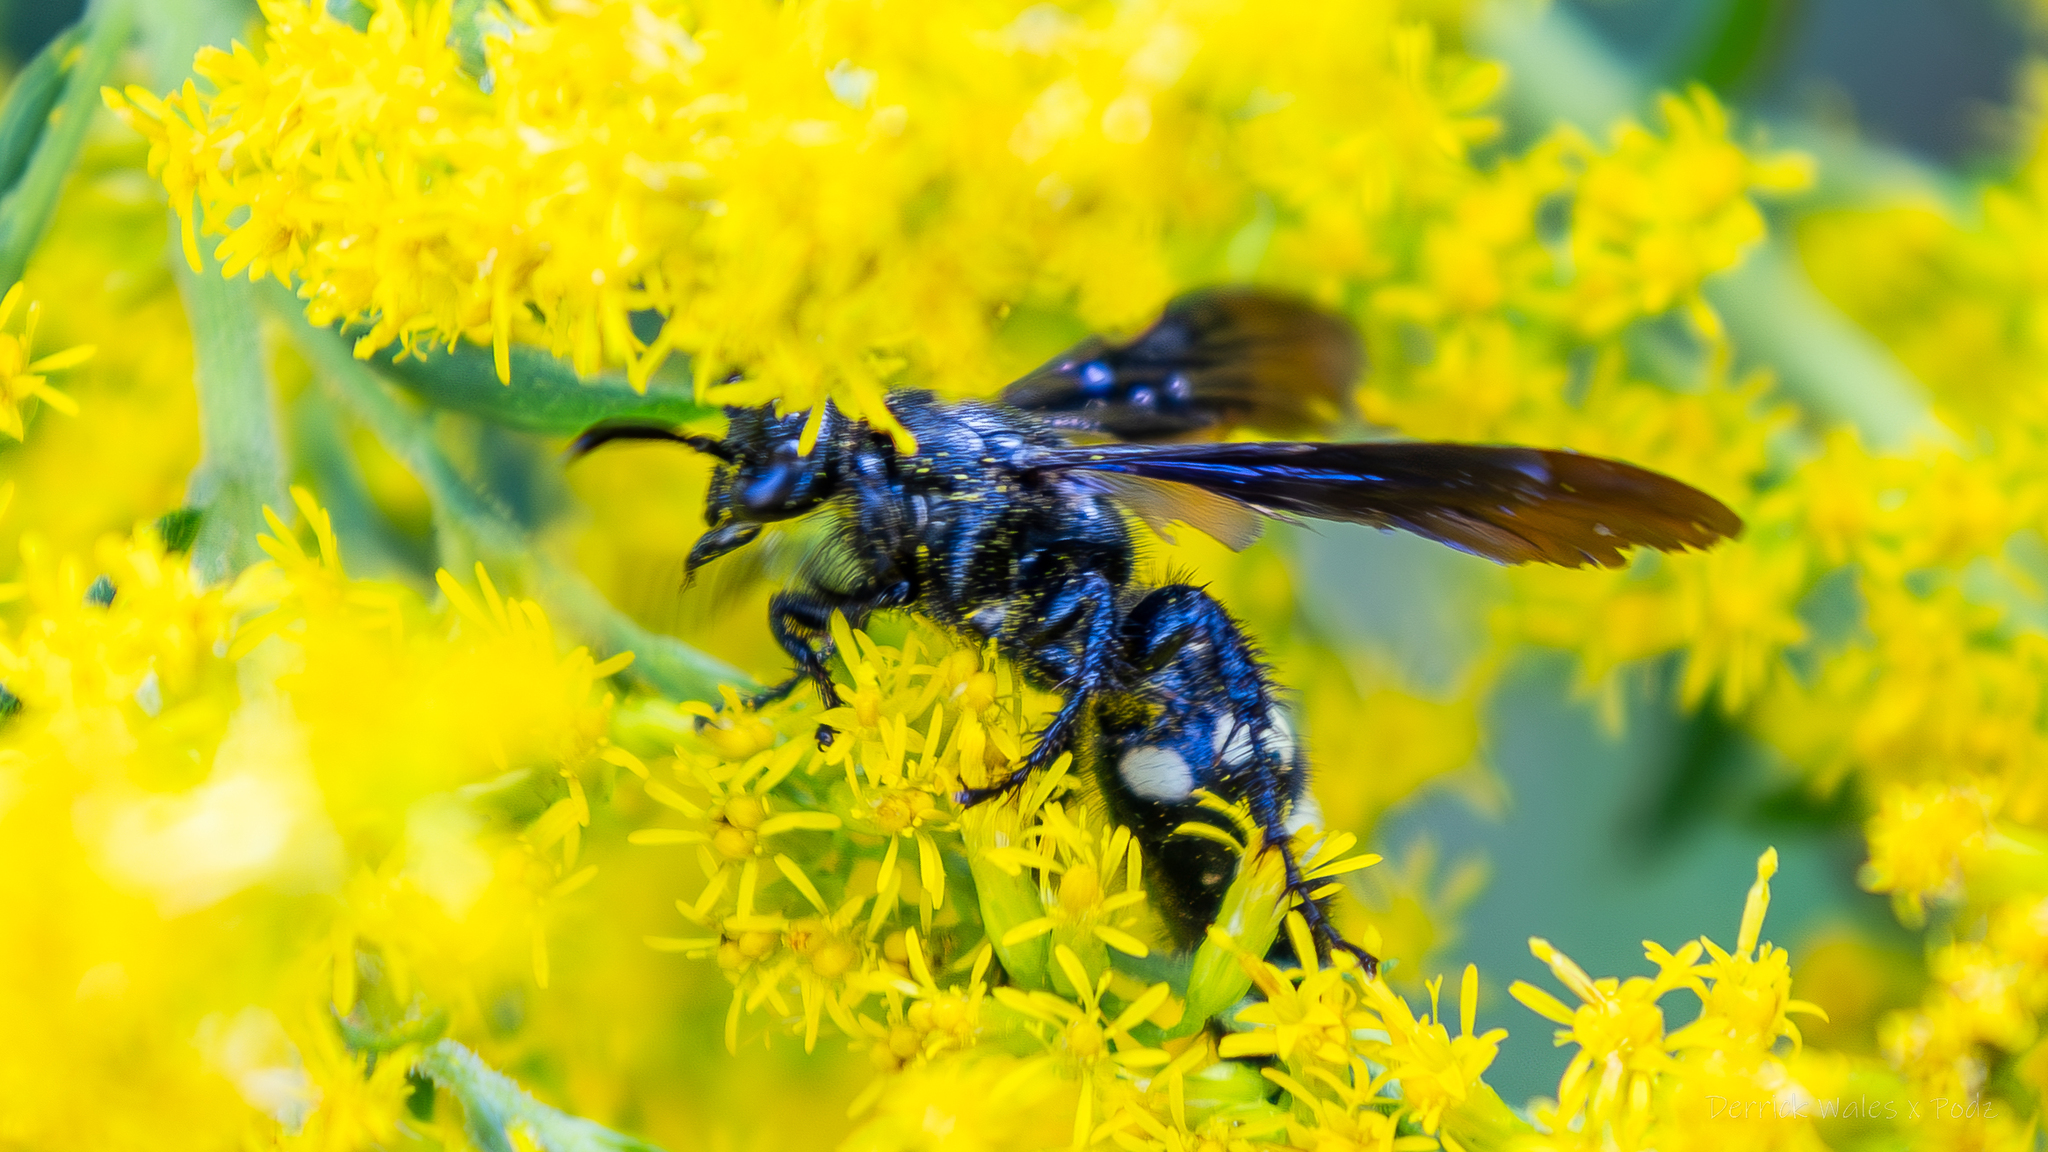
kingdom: Animalia
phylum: Arthropoda
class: Insecta
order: Hymenoptera
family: Scoliidae
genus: Scolia
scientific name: Scolia bicincta
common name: Double-banded scoliid wasp
